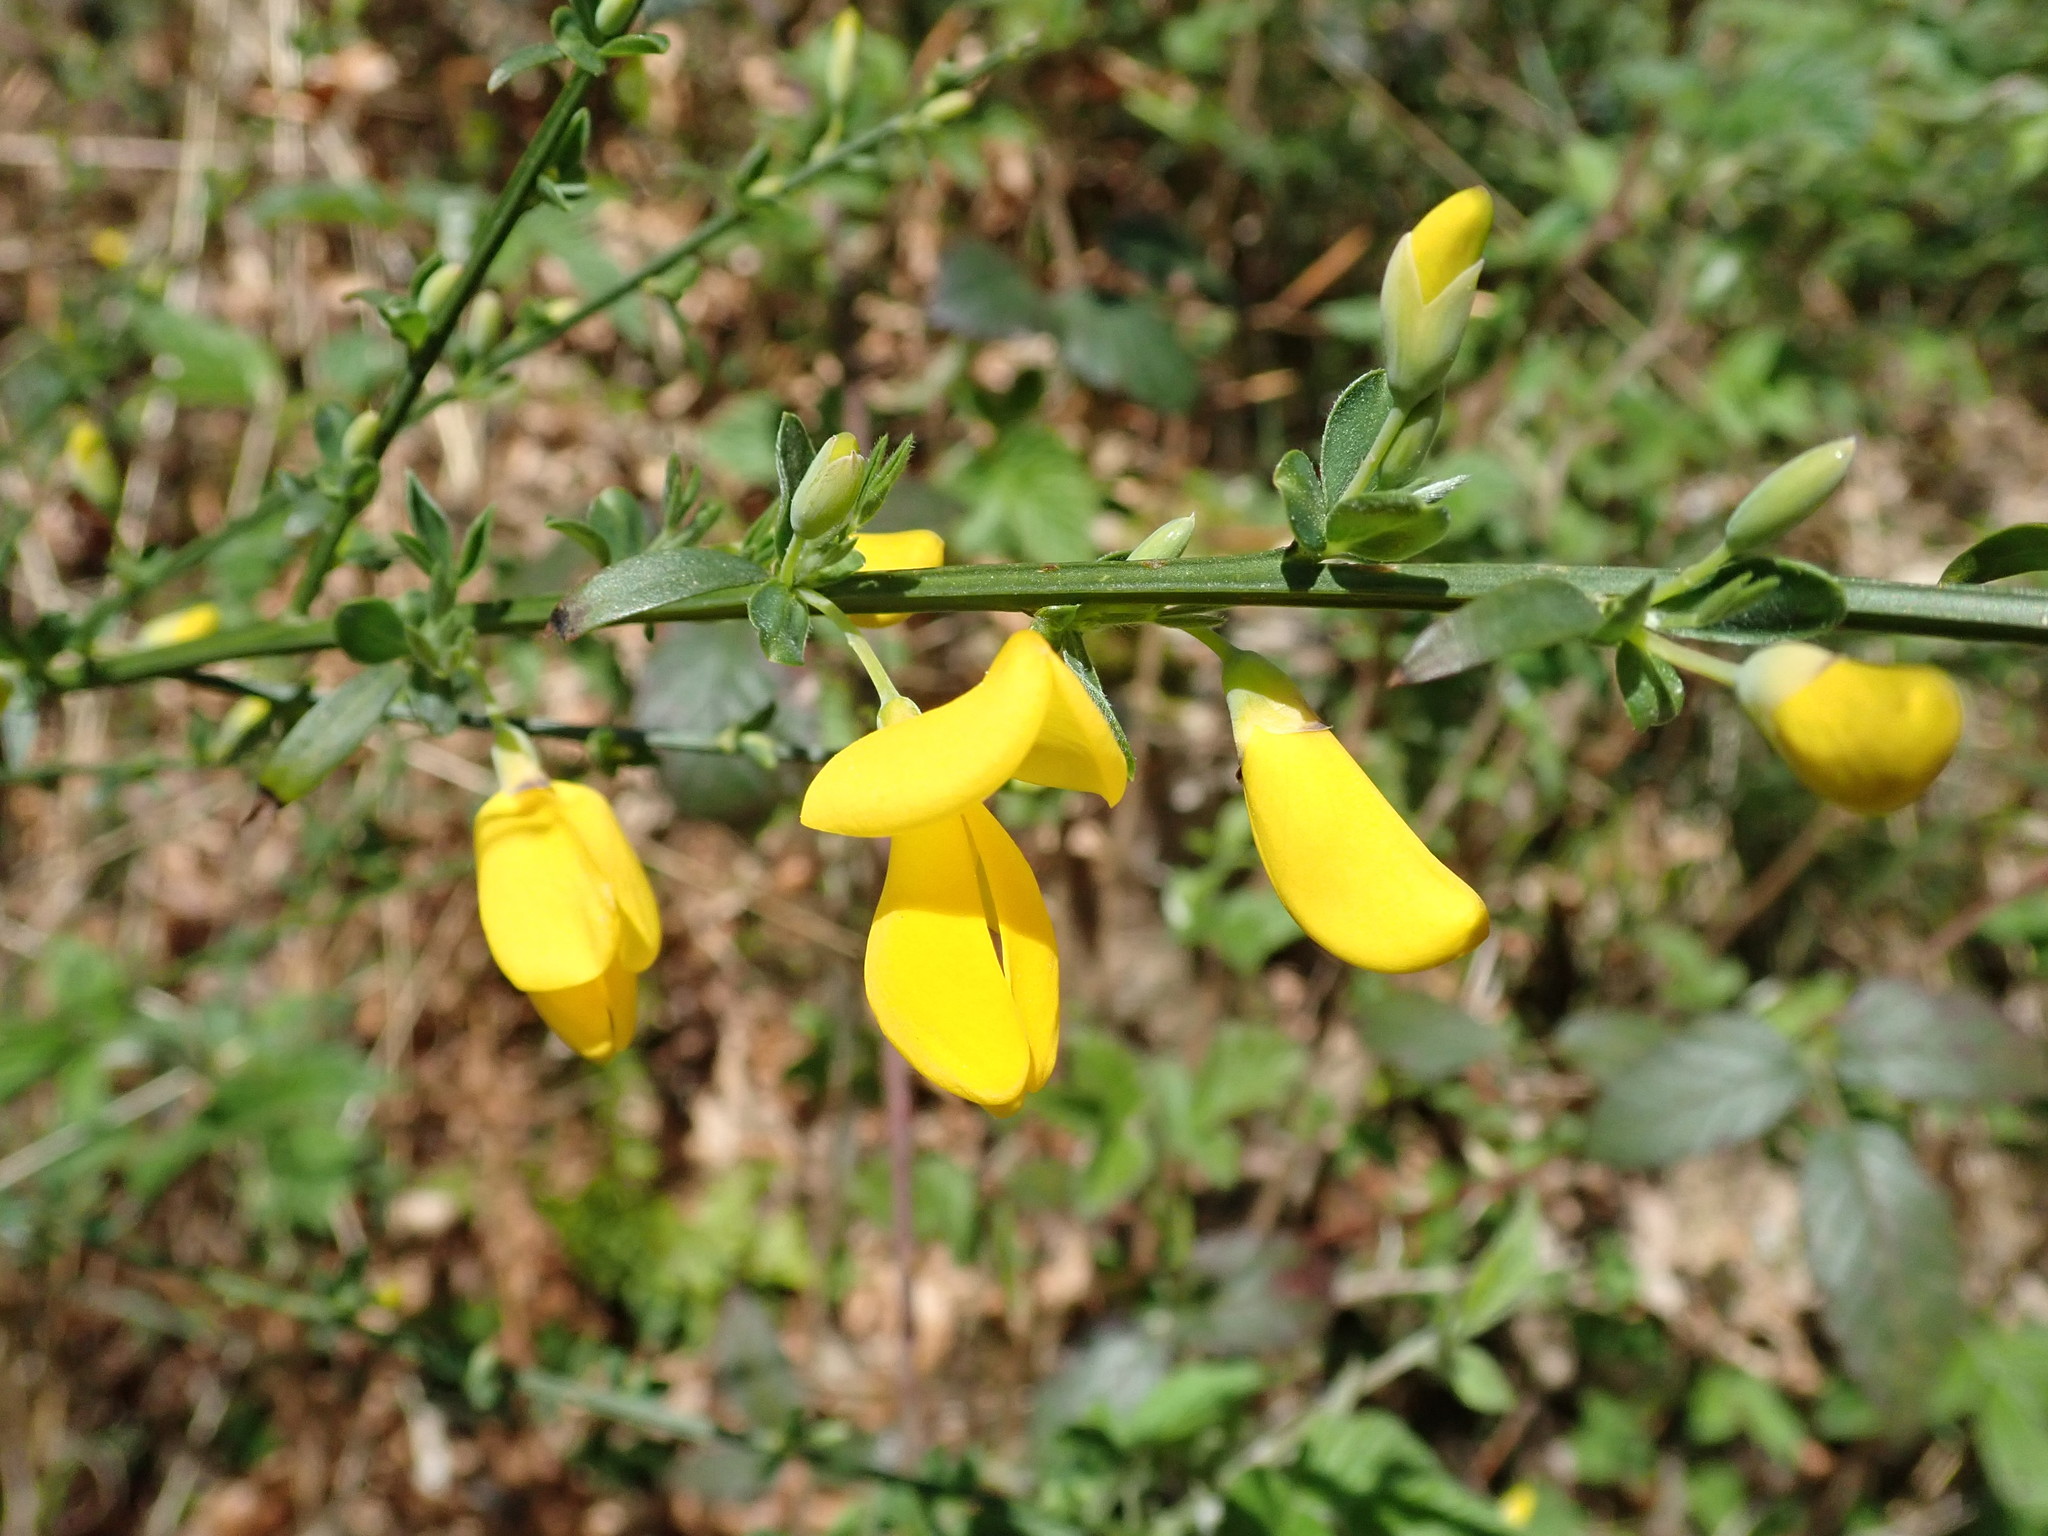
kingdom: Plantae
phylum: Tracheophyta
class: Magnoliopsida
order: Fabales
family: Fabaceae
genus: Cytisus
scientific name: Cytisus scoparius
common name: Scotch broom
